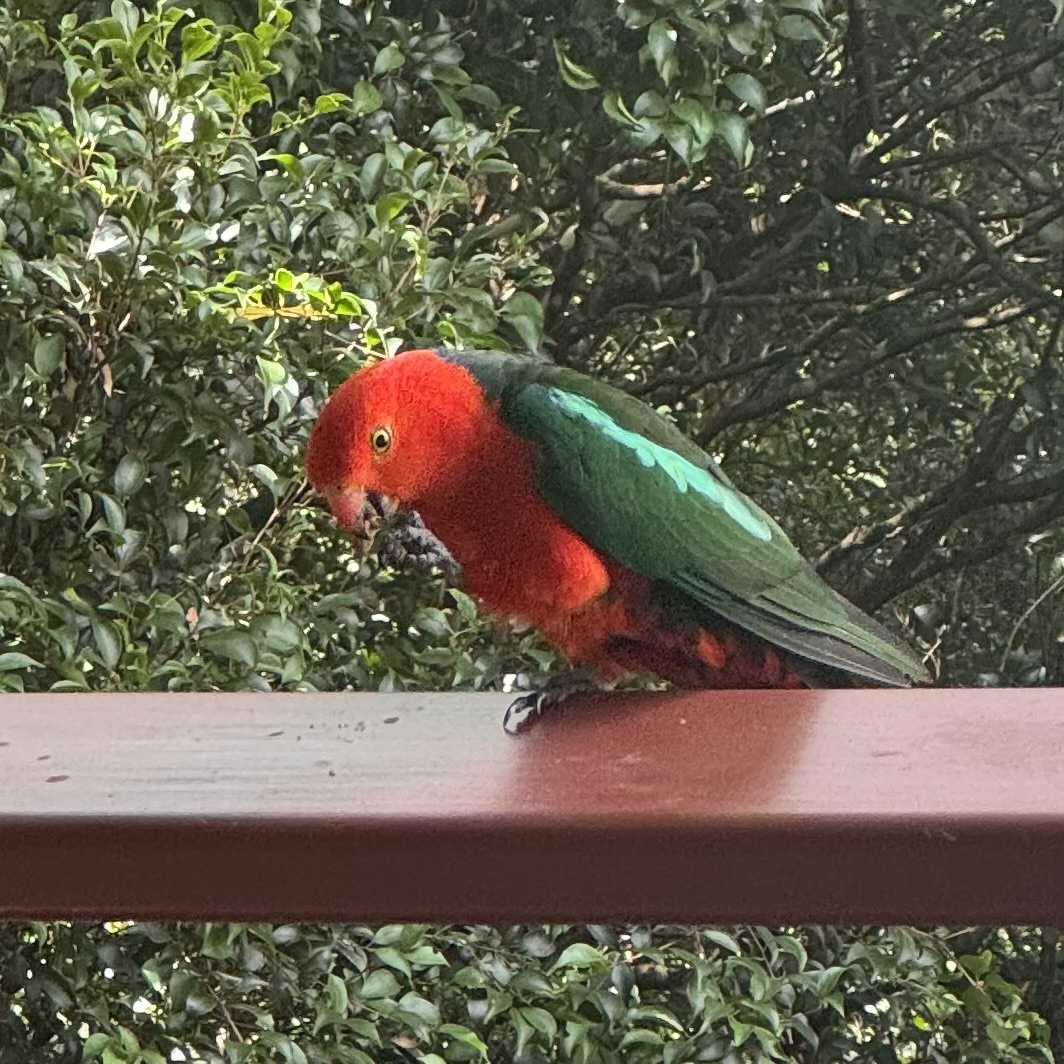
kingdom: Animalia
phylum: Chordata
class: Aves
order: Psittaciformes
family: Psittacidae
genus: Alisterus
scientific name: Alisterus scapularis
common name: Australian king parrot
